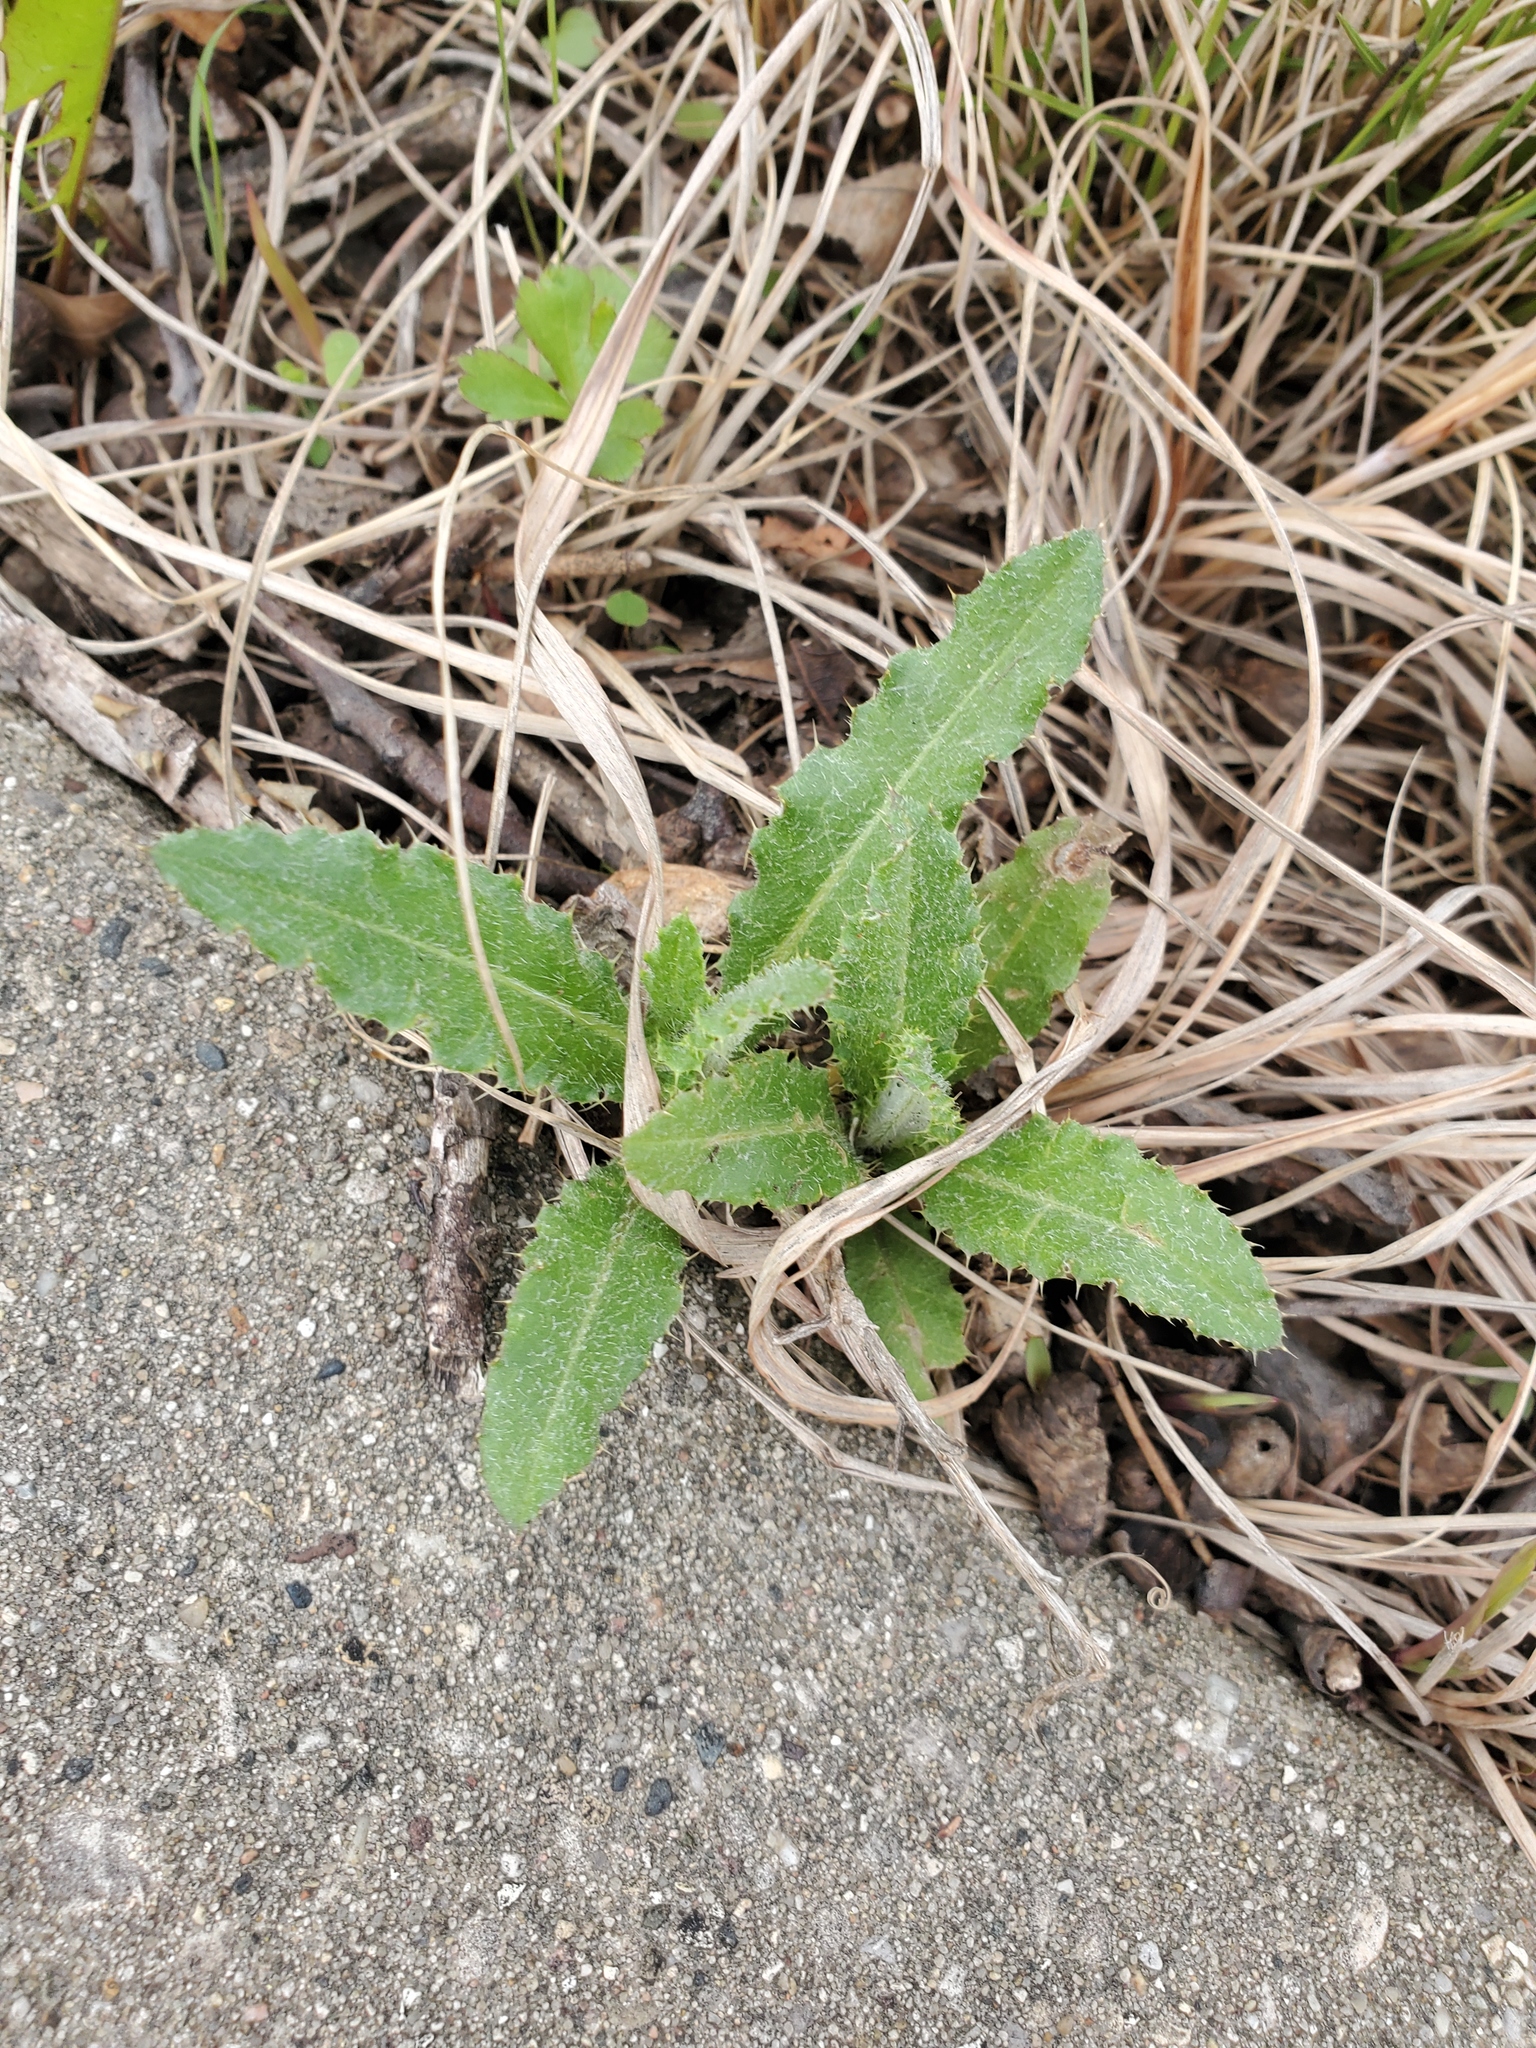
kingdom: Plantae
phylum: Tracheophyta
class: Magnoliopsida
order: Asterales
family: Asteraceae
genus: Cirsium
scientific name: Cirsium arvense
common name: Creeping thistle
